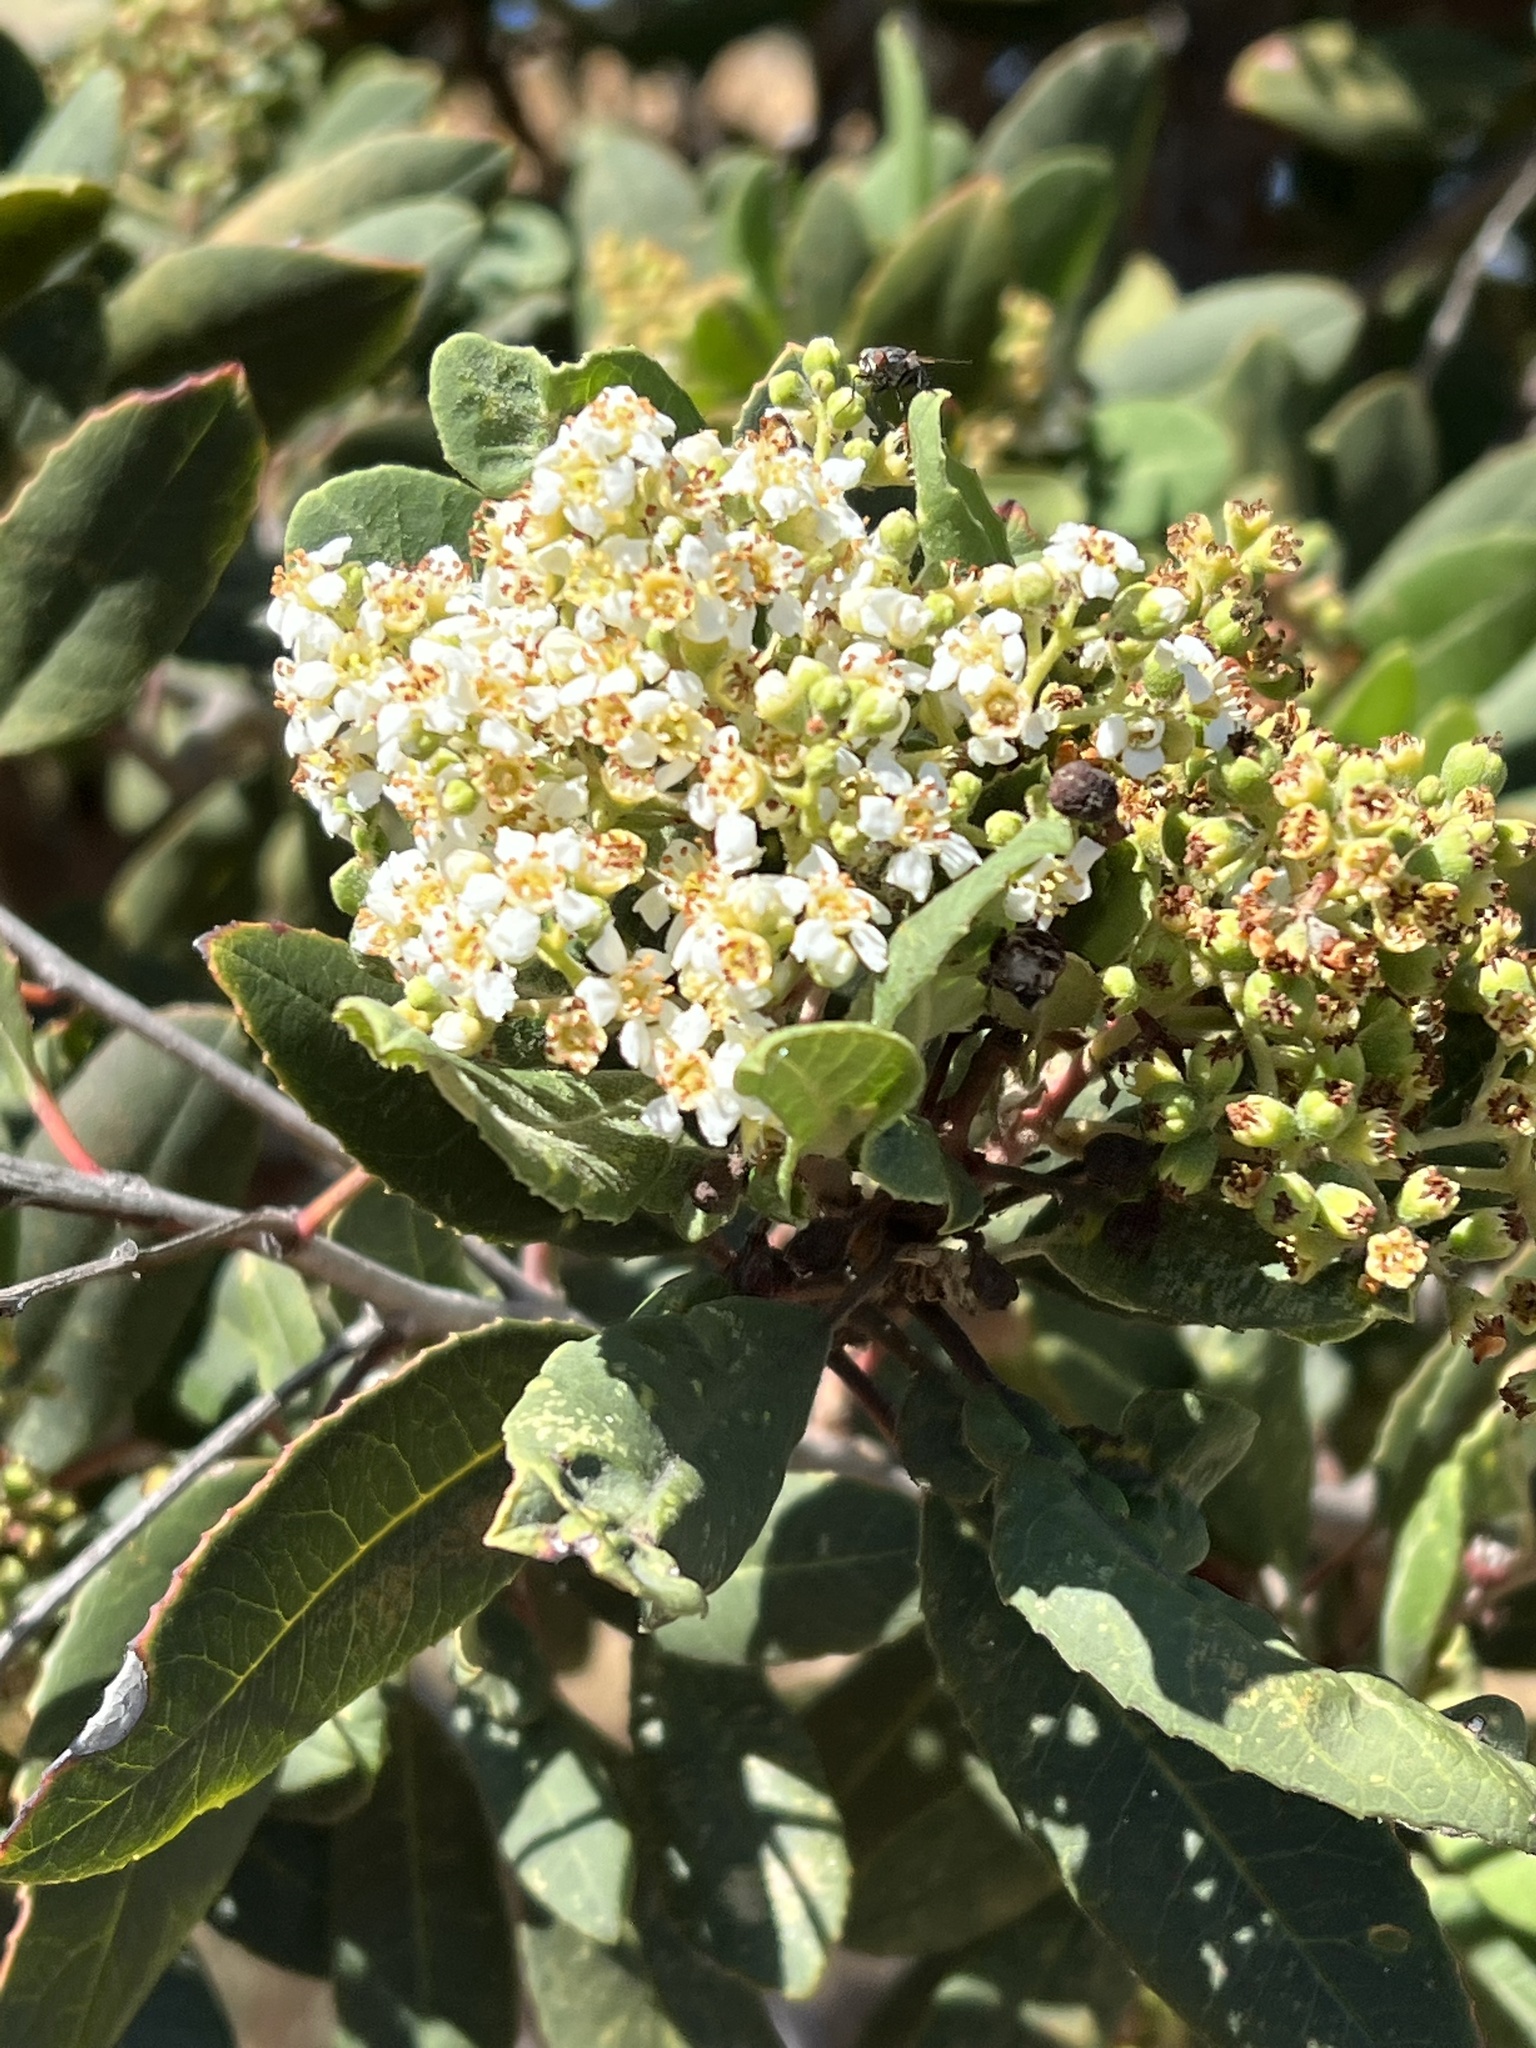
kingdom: Plantae
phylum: Tracheophyta
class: Magnoliopsida
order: Rosales
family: Rosaceae
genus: Heteromeles
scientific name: Heteromeles arbutifolia
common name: California-holly
